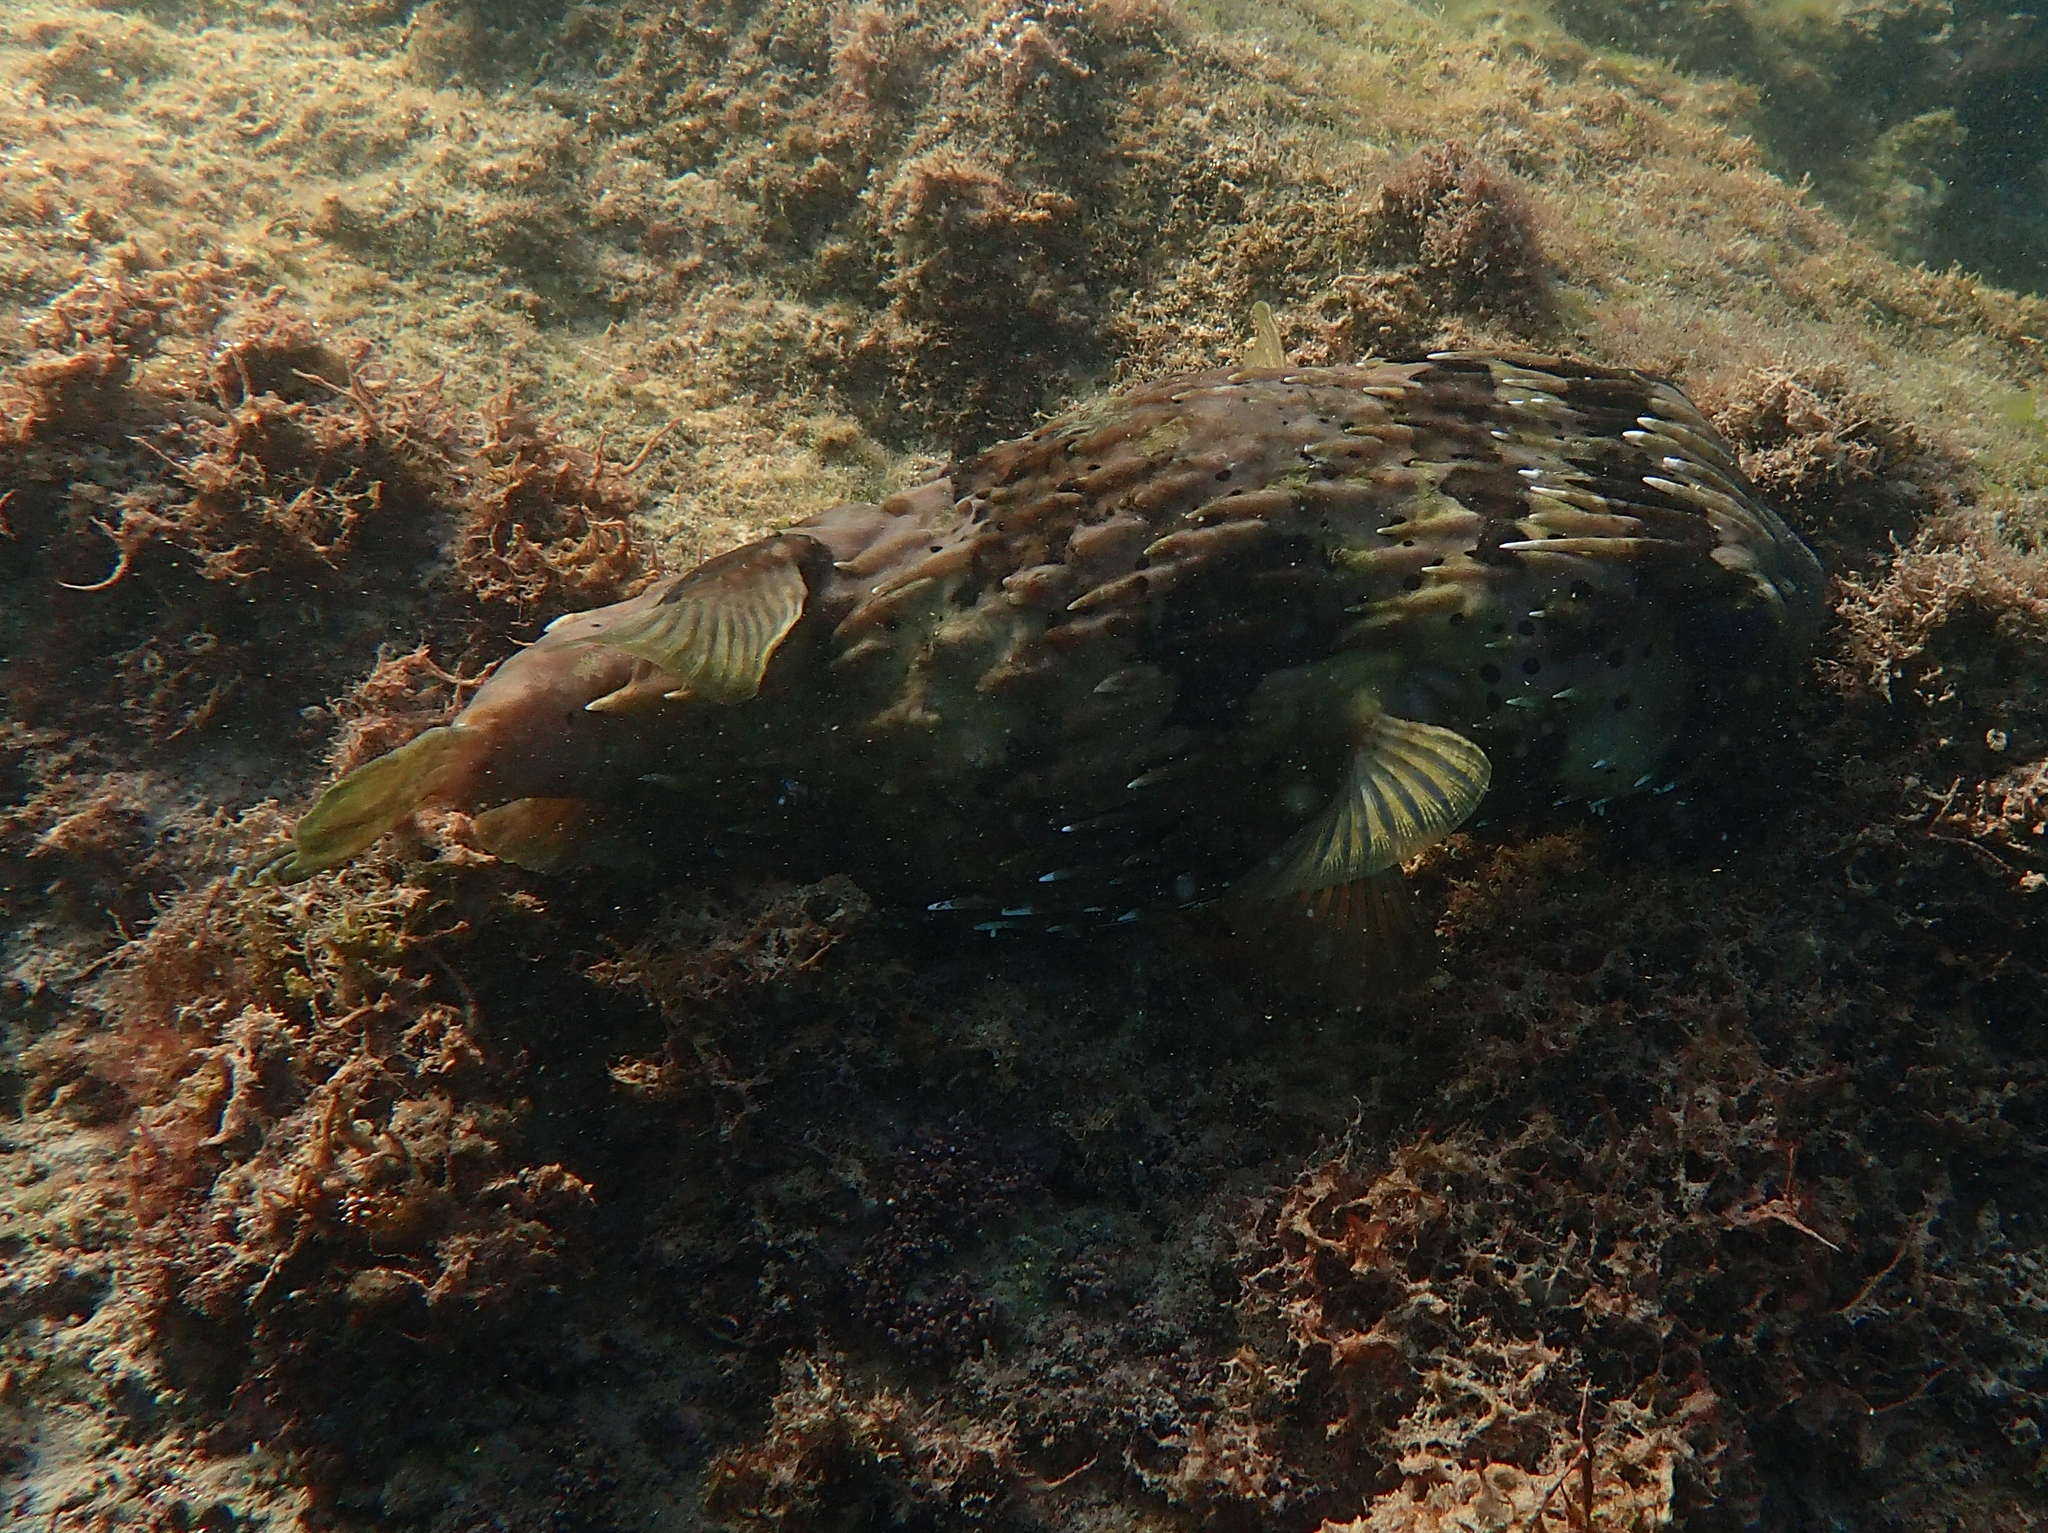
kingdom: Animalia
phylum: Chordata
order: Tetraodontiformes
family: Diodontidae
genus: Diodon
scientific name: Diodon holocanthus
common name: Balloonfish
